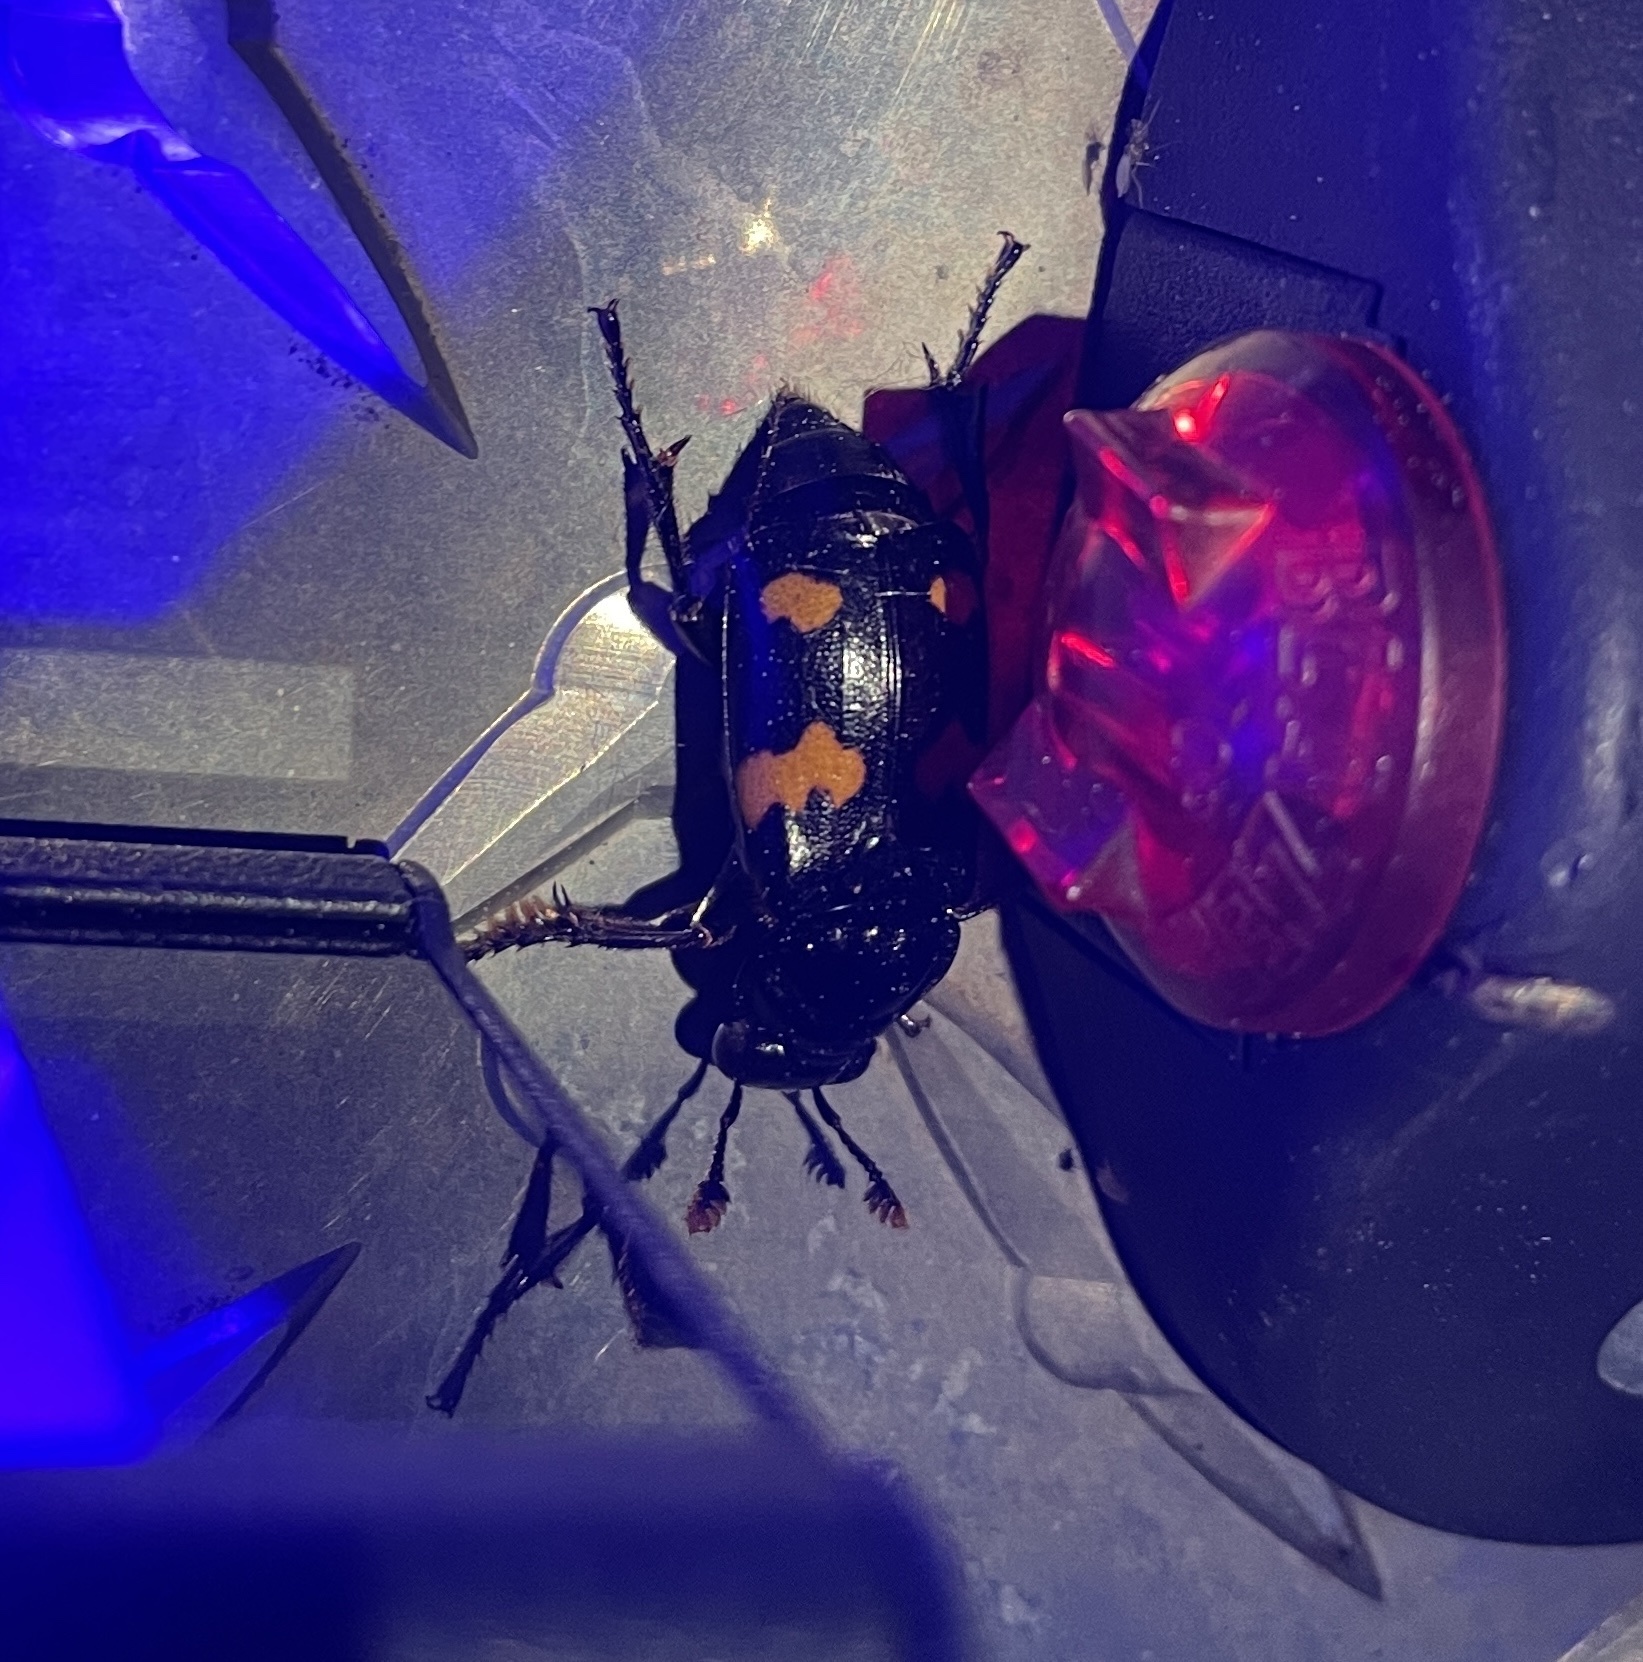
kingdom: Animalia
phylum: Arthropoda
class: Insecta
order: Coleoptera
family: Staphylinidae
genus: Nicrophorus
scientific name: Nicrophorus orbicollis
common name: Roundneck sexton beetle
